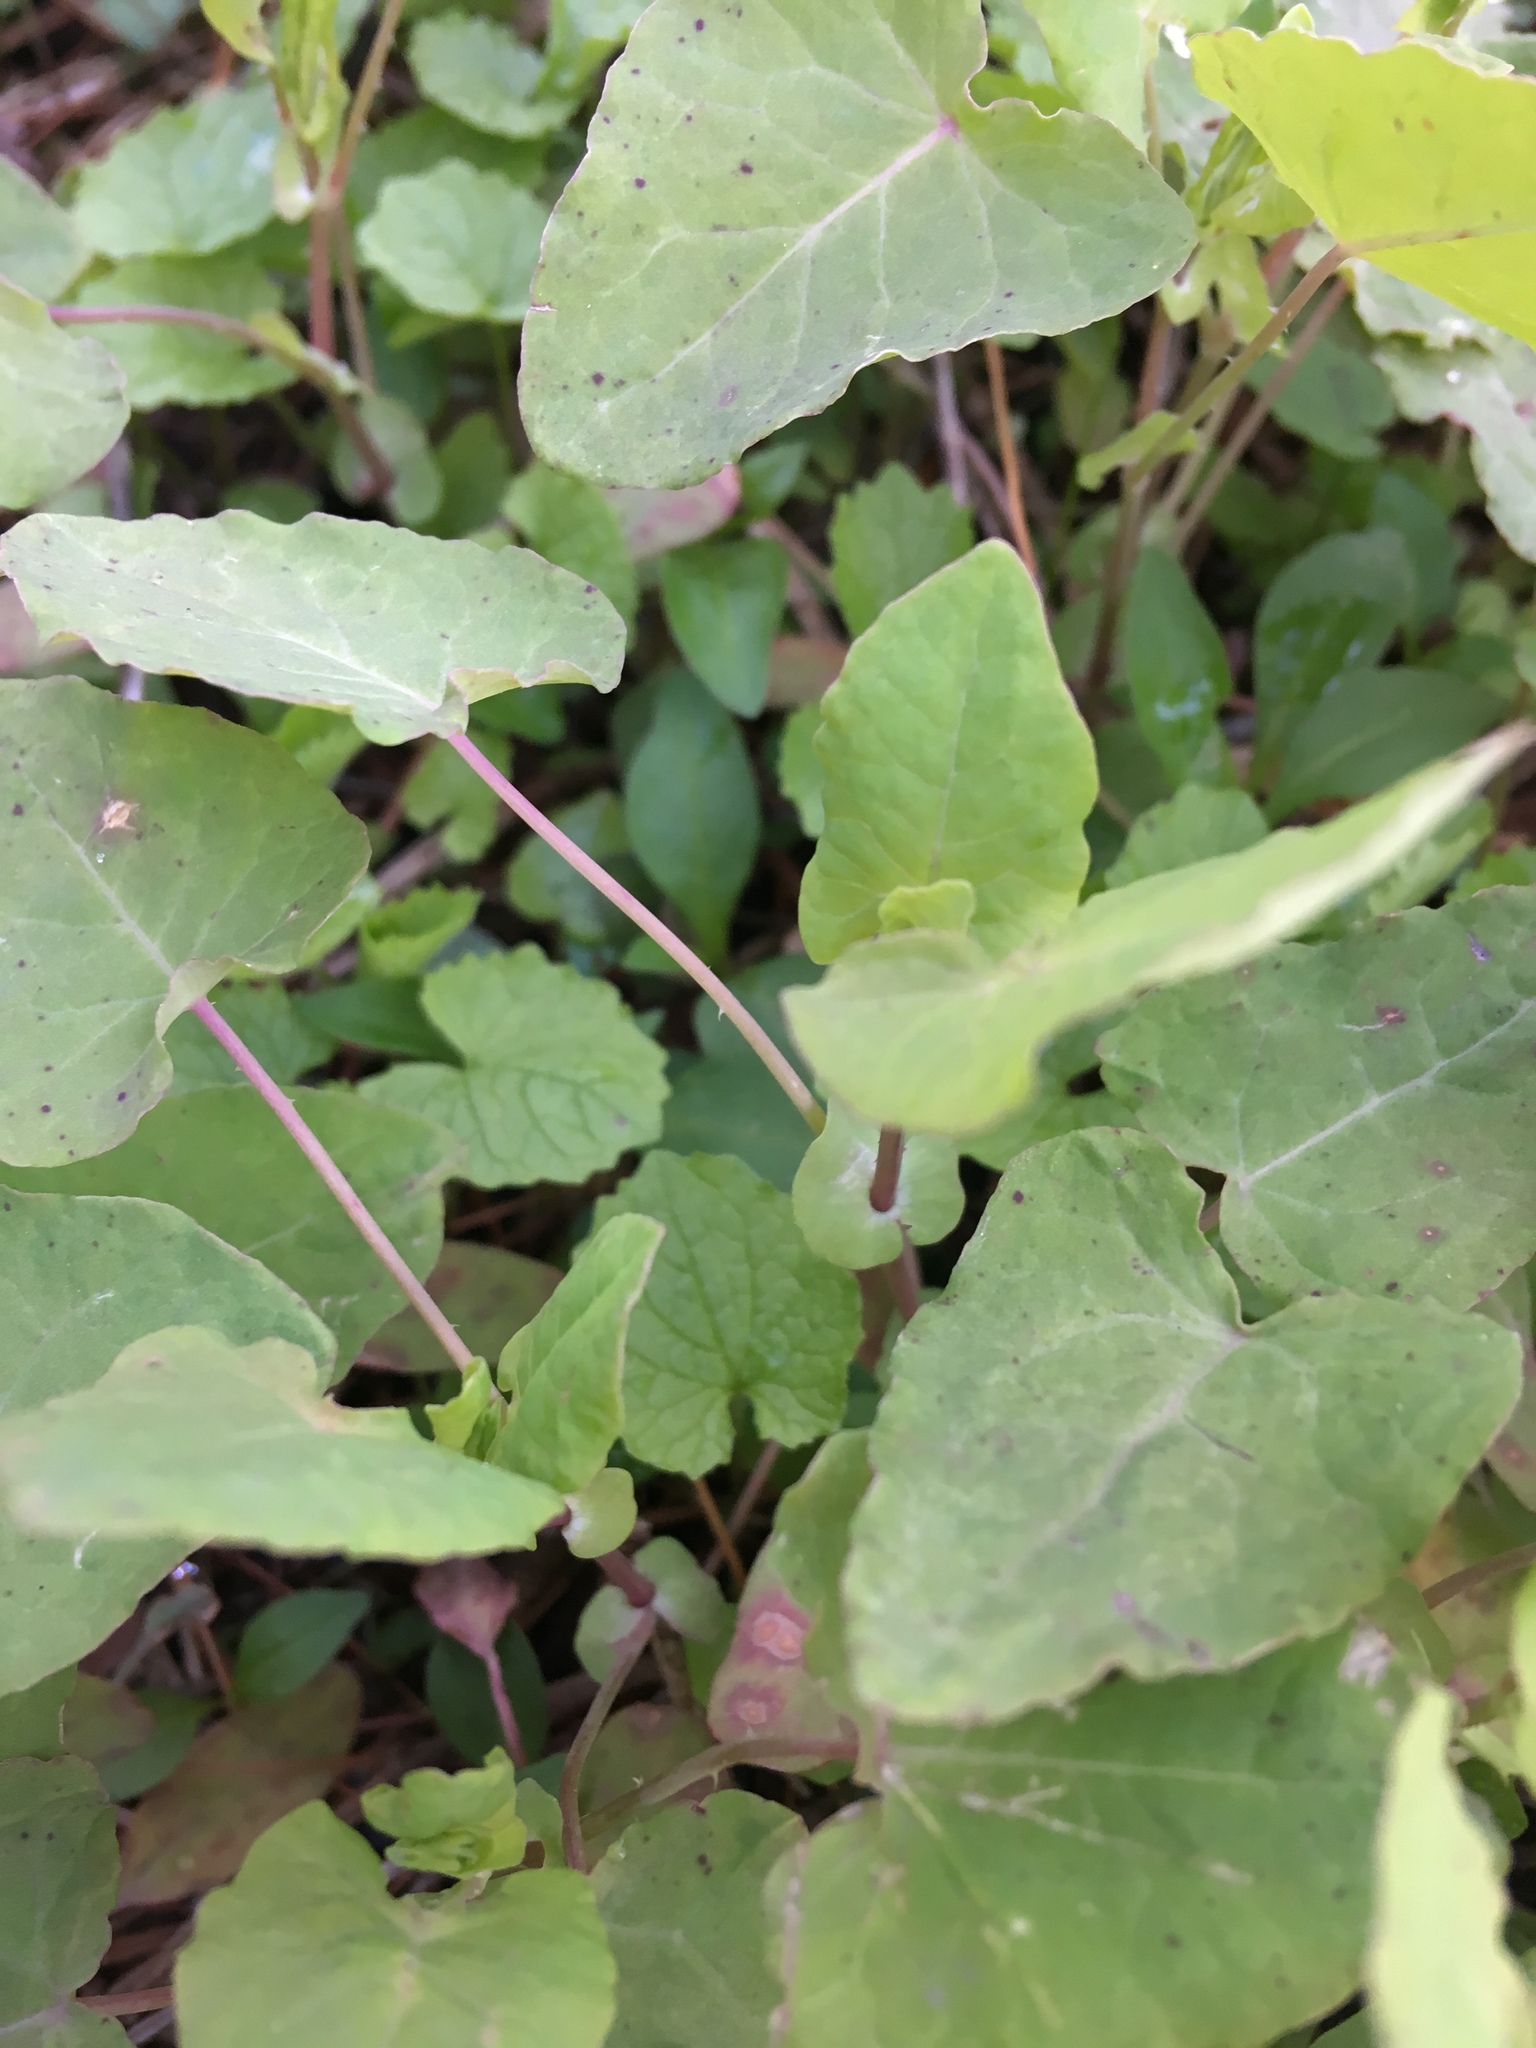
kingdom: Plantae
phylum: Tracheophyta
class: Magnoliopsida
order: Caryophyllales
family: Polygonaceae
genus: Persicaria
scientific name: Persicaria perfoliata
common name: Asiatic tearthumb
